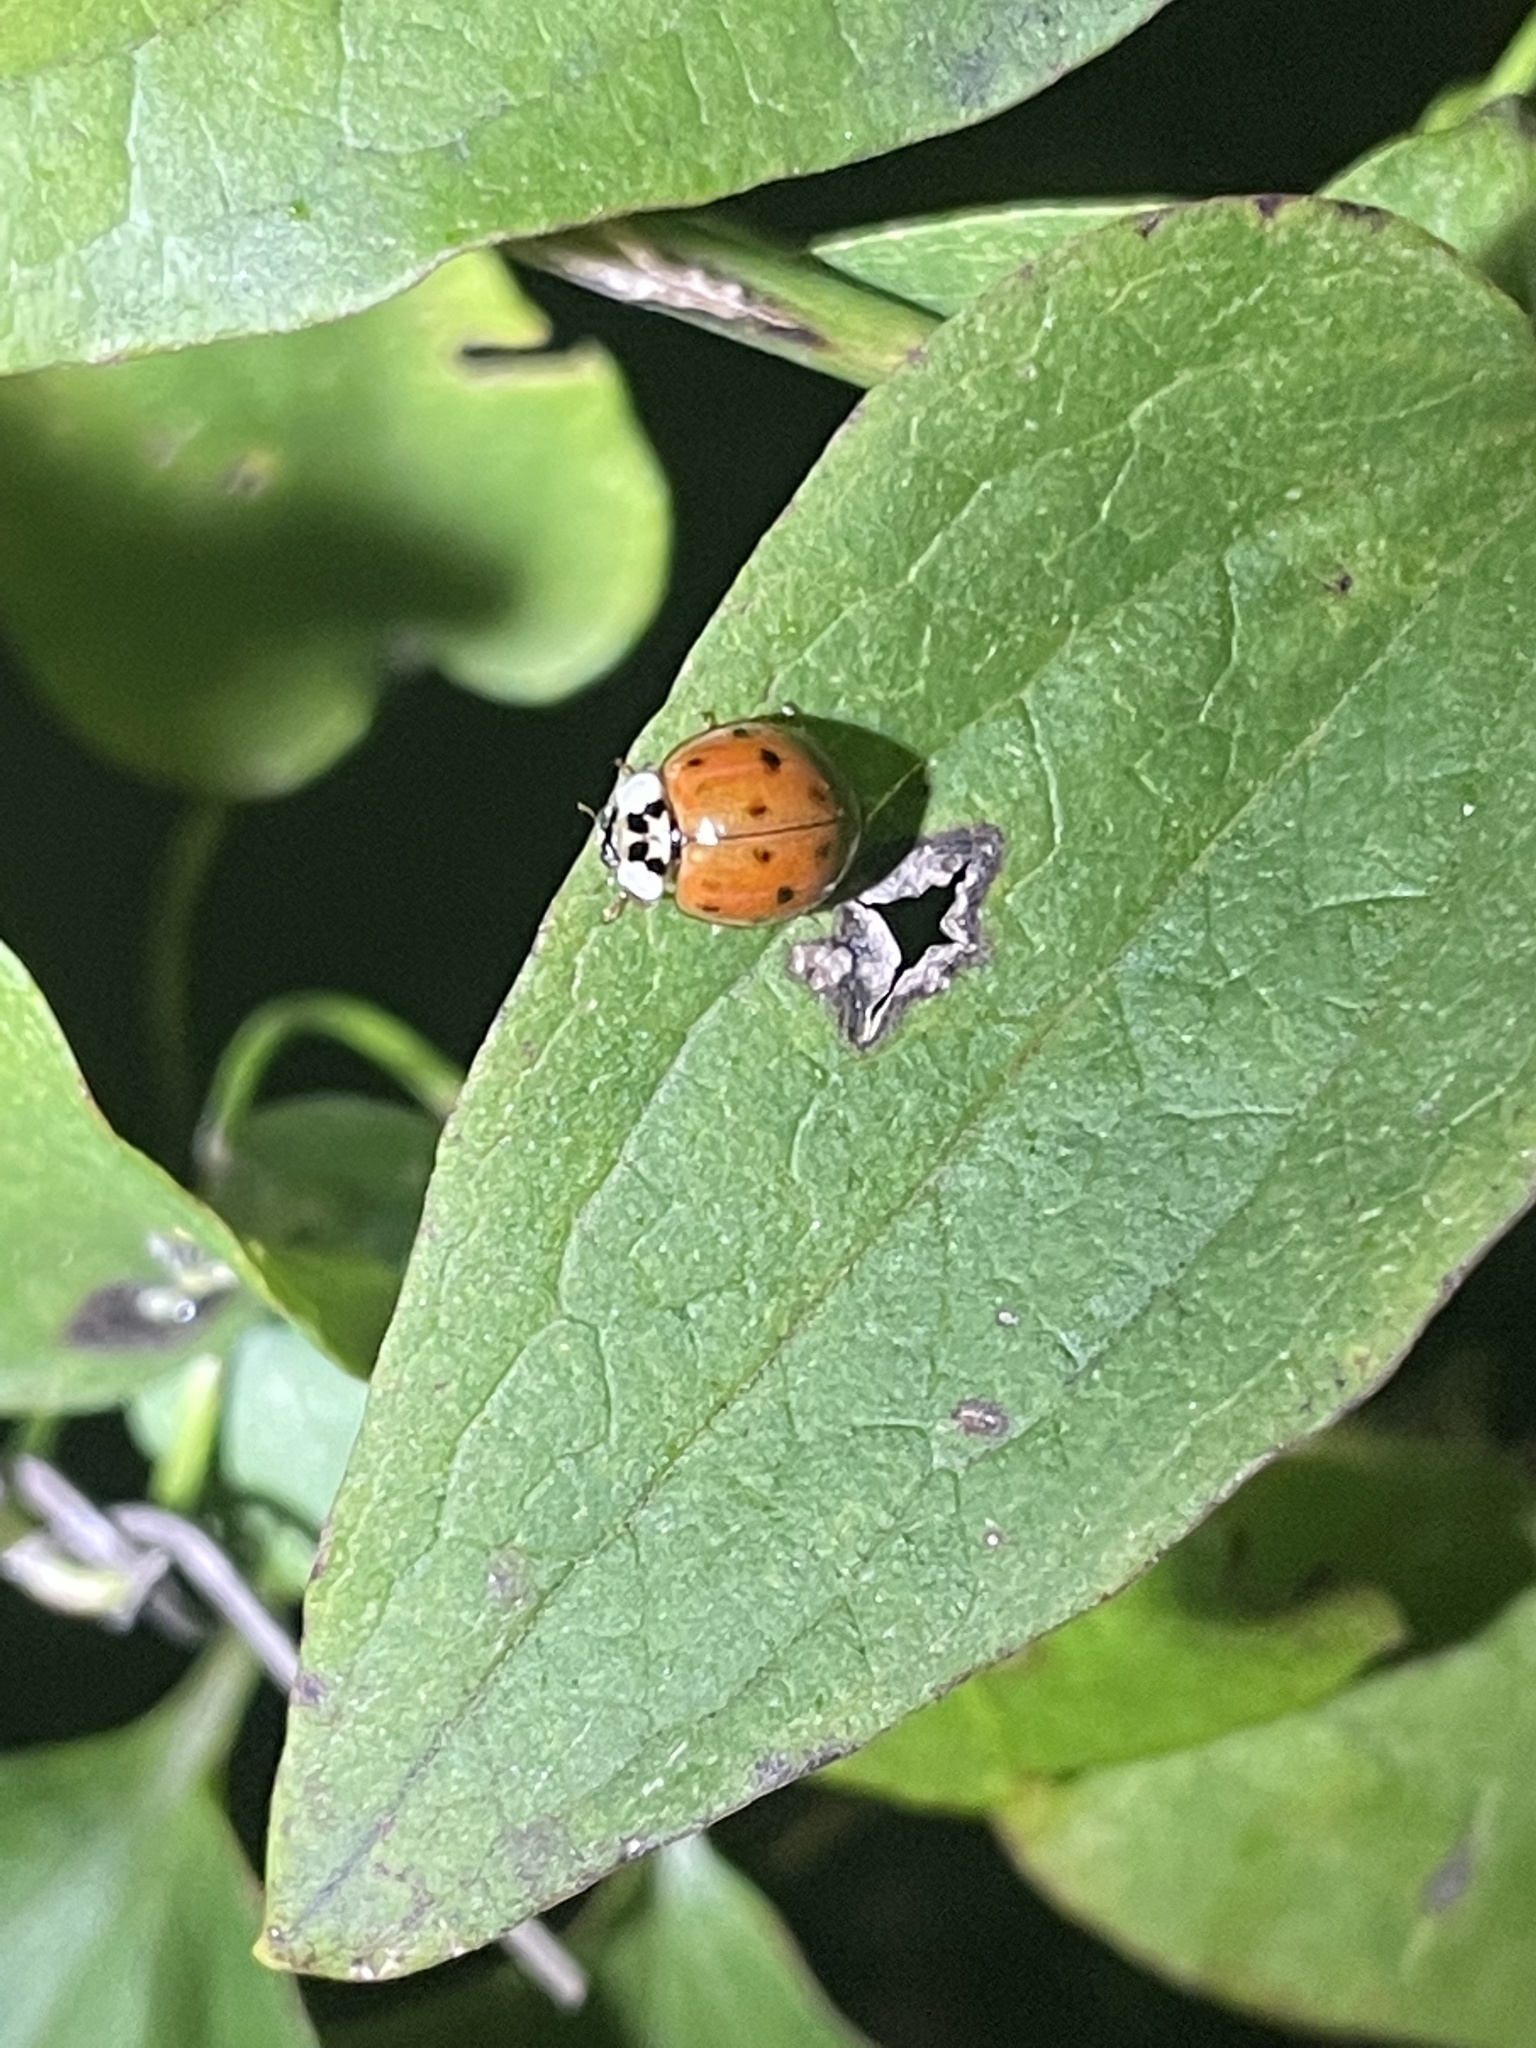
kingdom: Animalia
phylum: Arthropoda
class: Insecta
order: Coleoptera
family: Coccinellidae
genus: Harmonia
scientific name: Harmonia axyridis
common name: Harlequin ladybird
